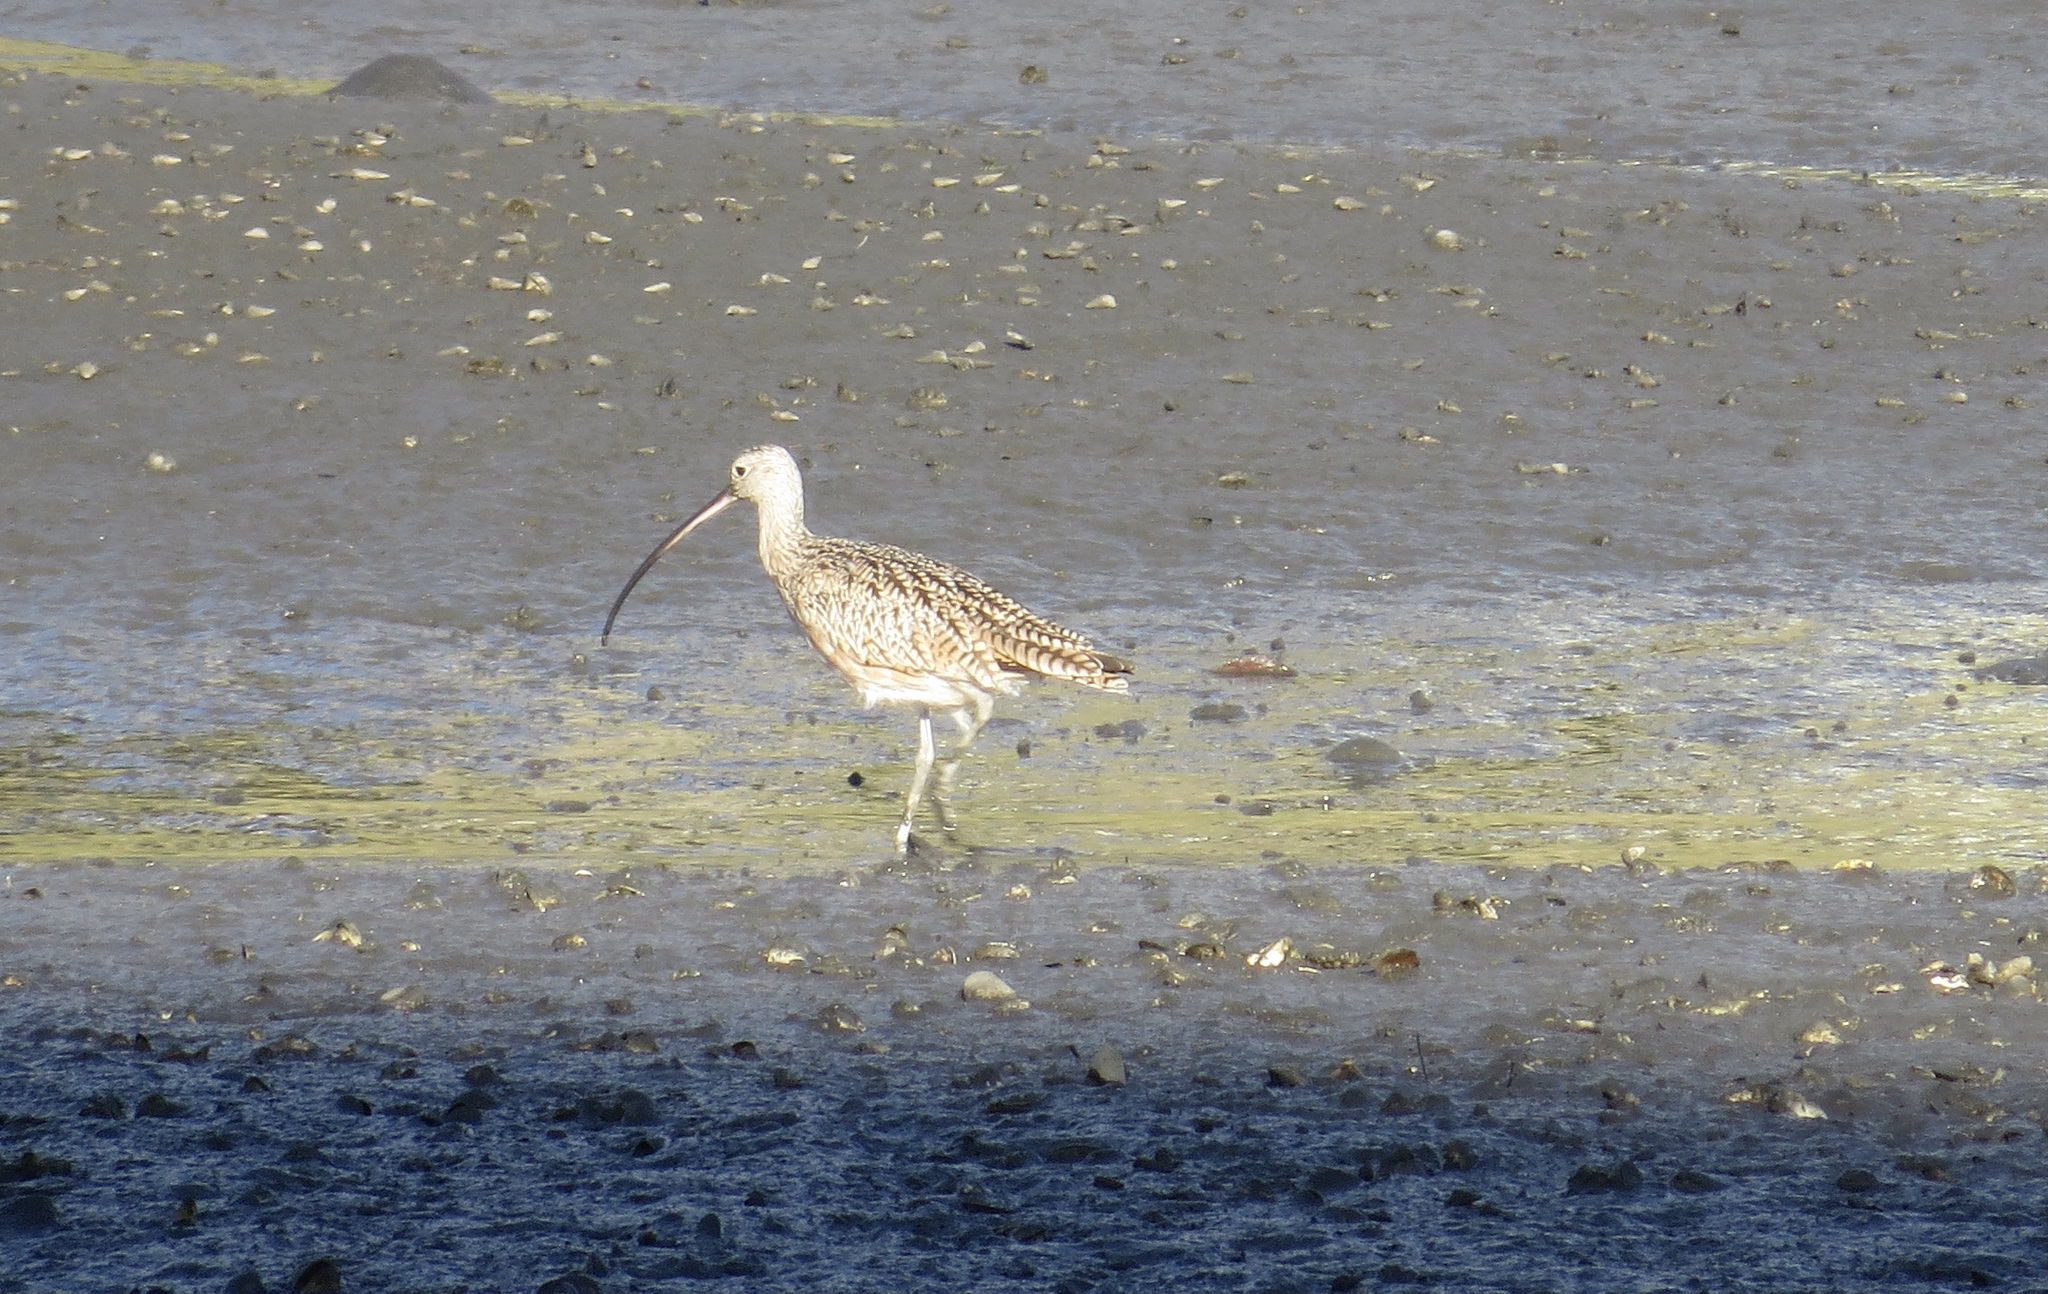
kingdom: Animalia
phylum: Chordata
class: Aves
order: Charadriiformes
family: Scolopacidae
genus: Numenius
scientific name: Numenius americanus
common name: Long-billed curlew
